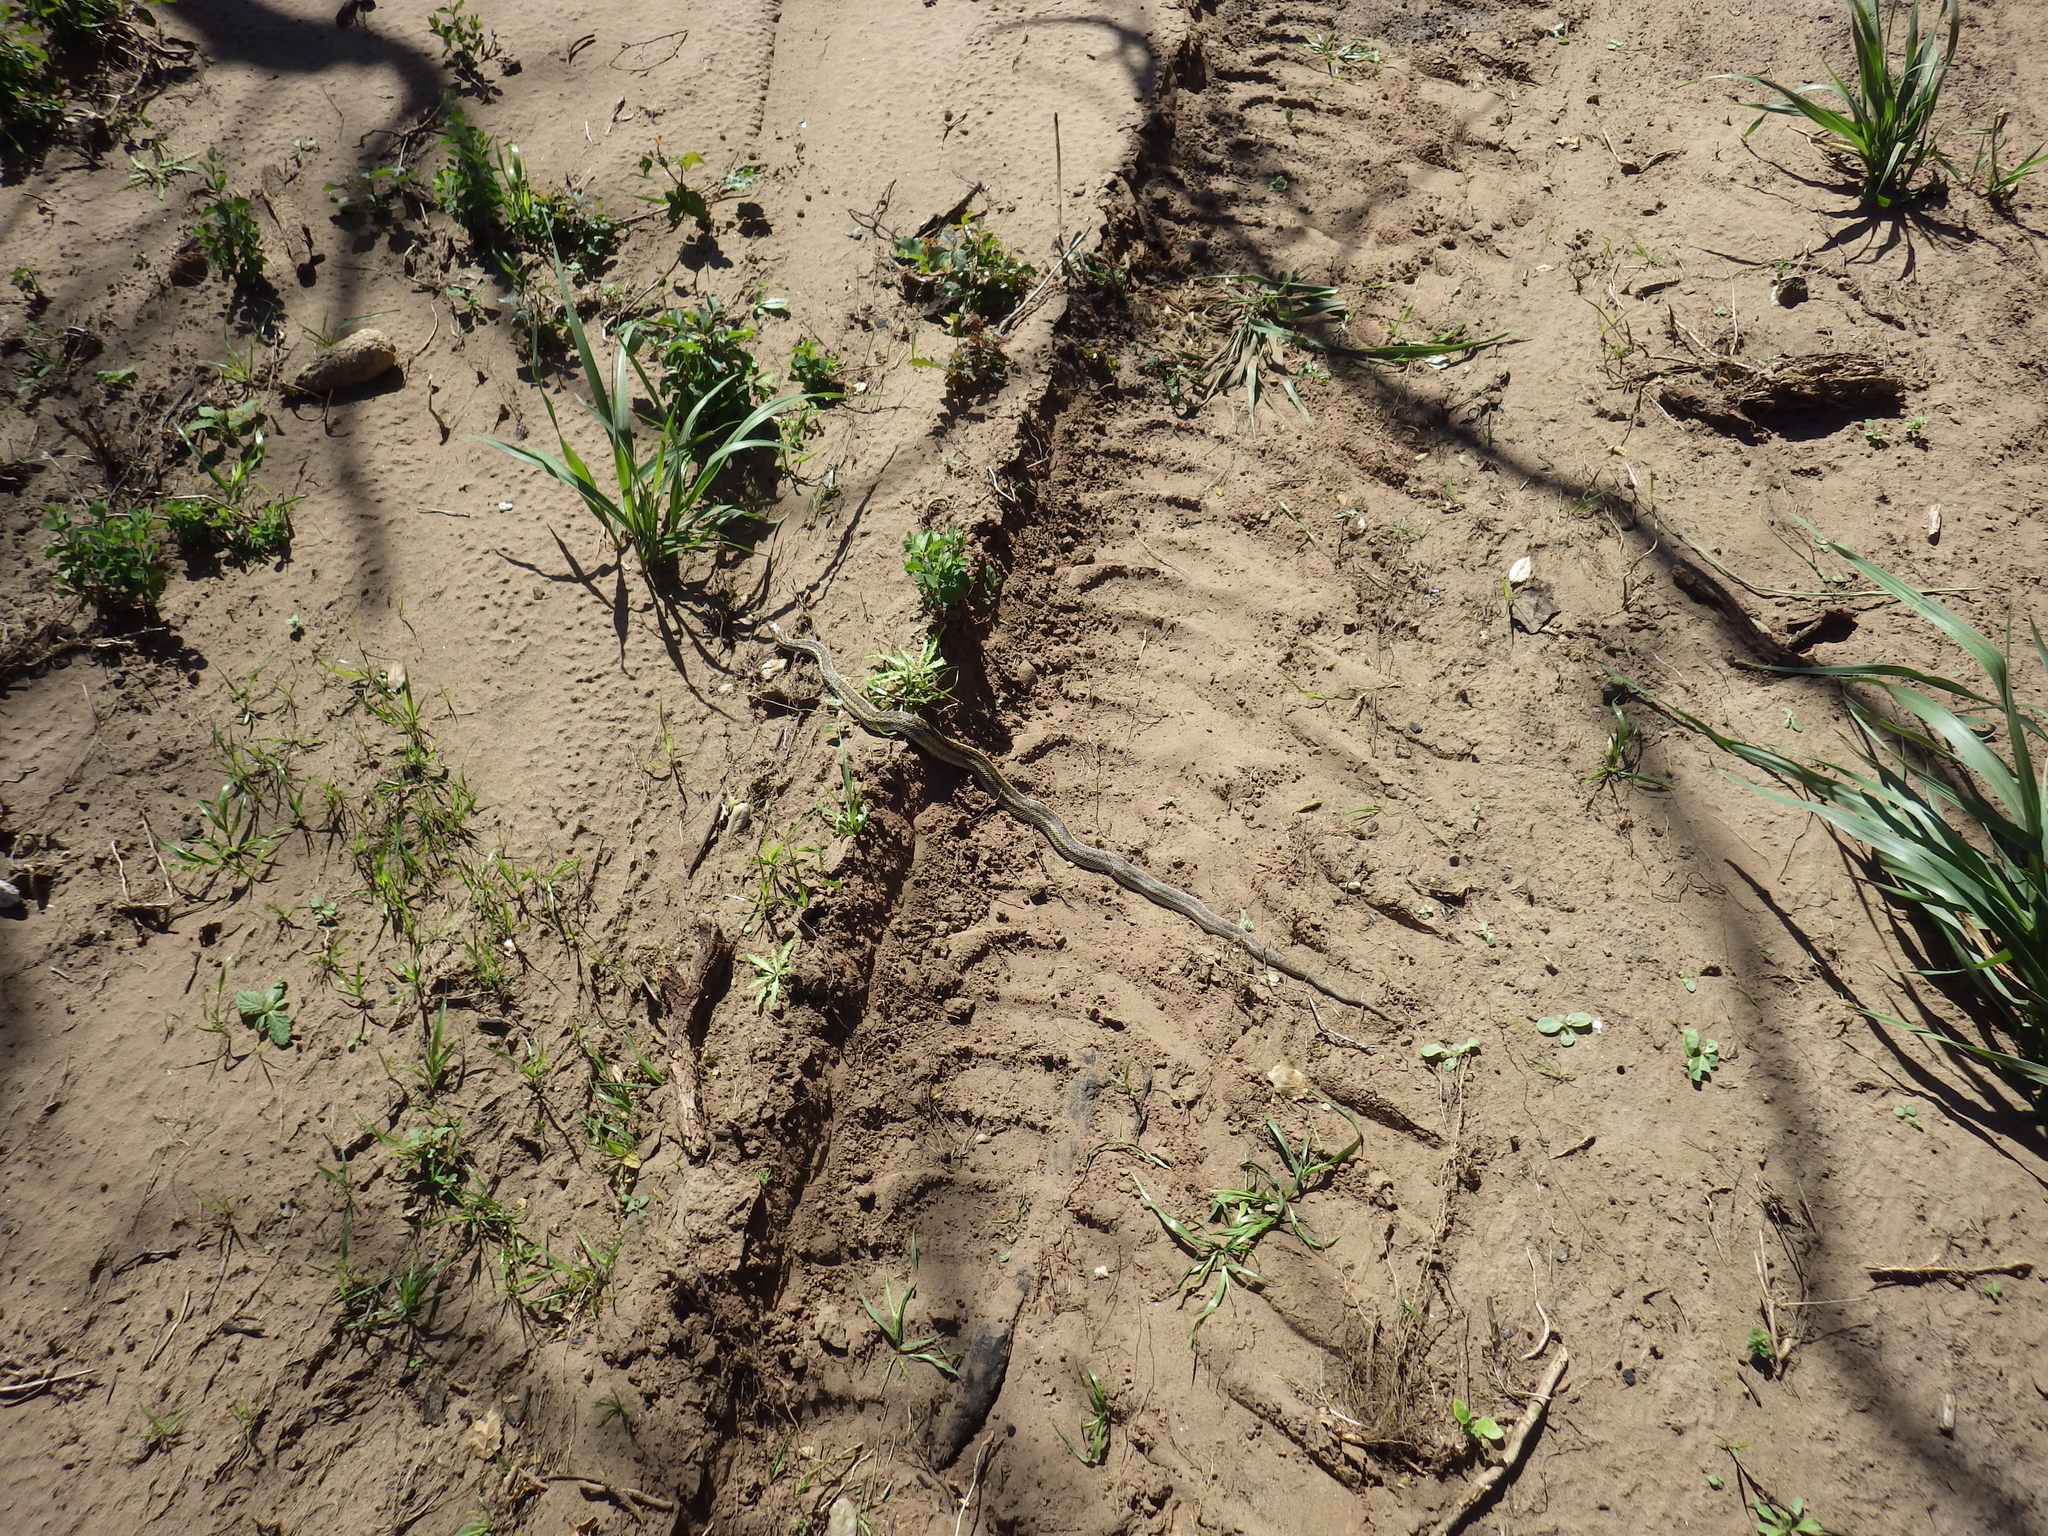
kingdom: Animalia
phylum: Chordata
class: Squamata
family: Colubridae
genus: Pituophis
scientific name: Pituophis catenifer
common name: Gopher snake
